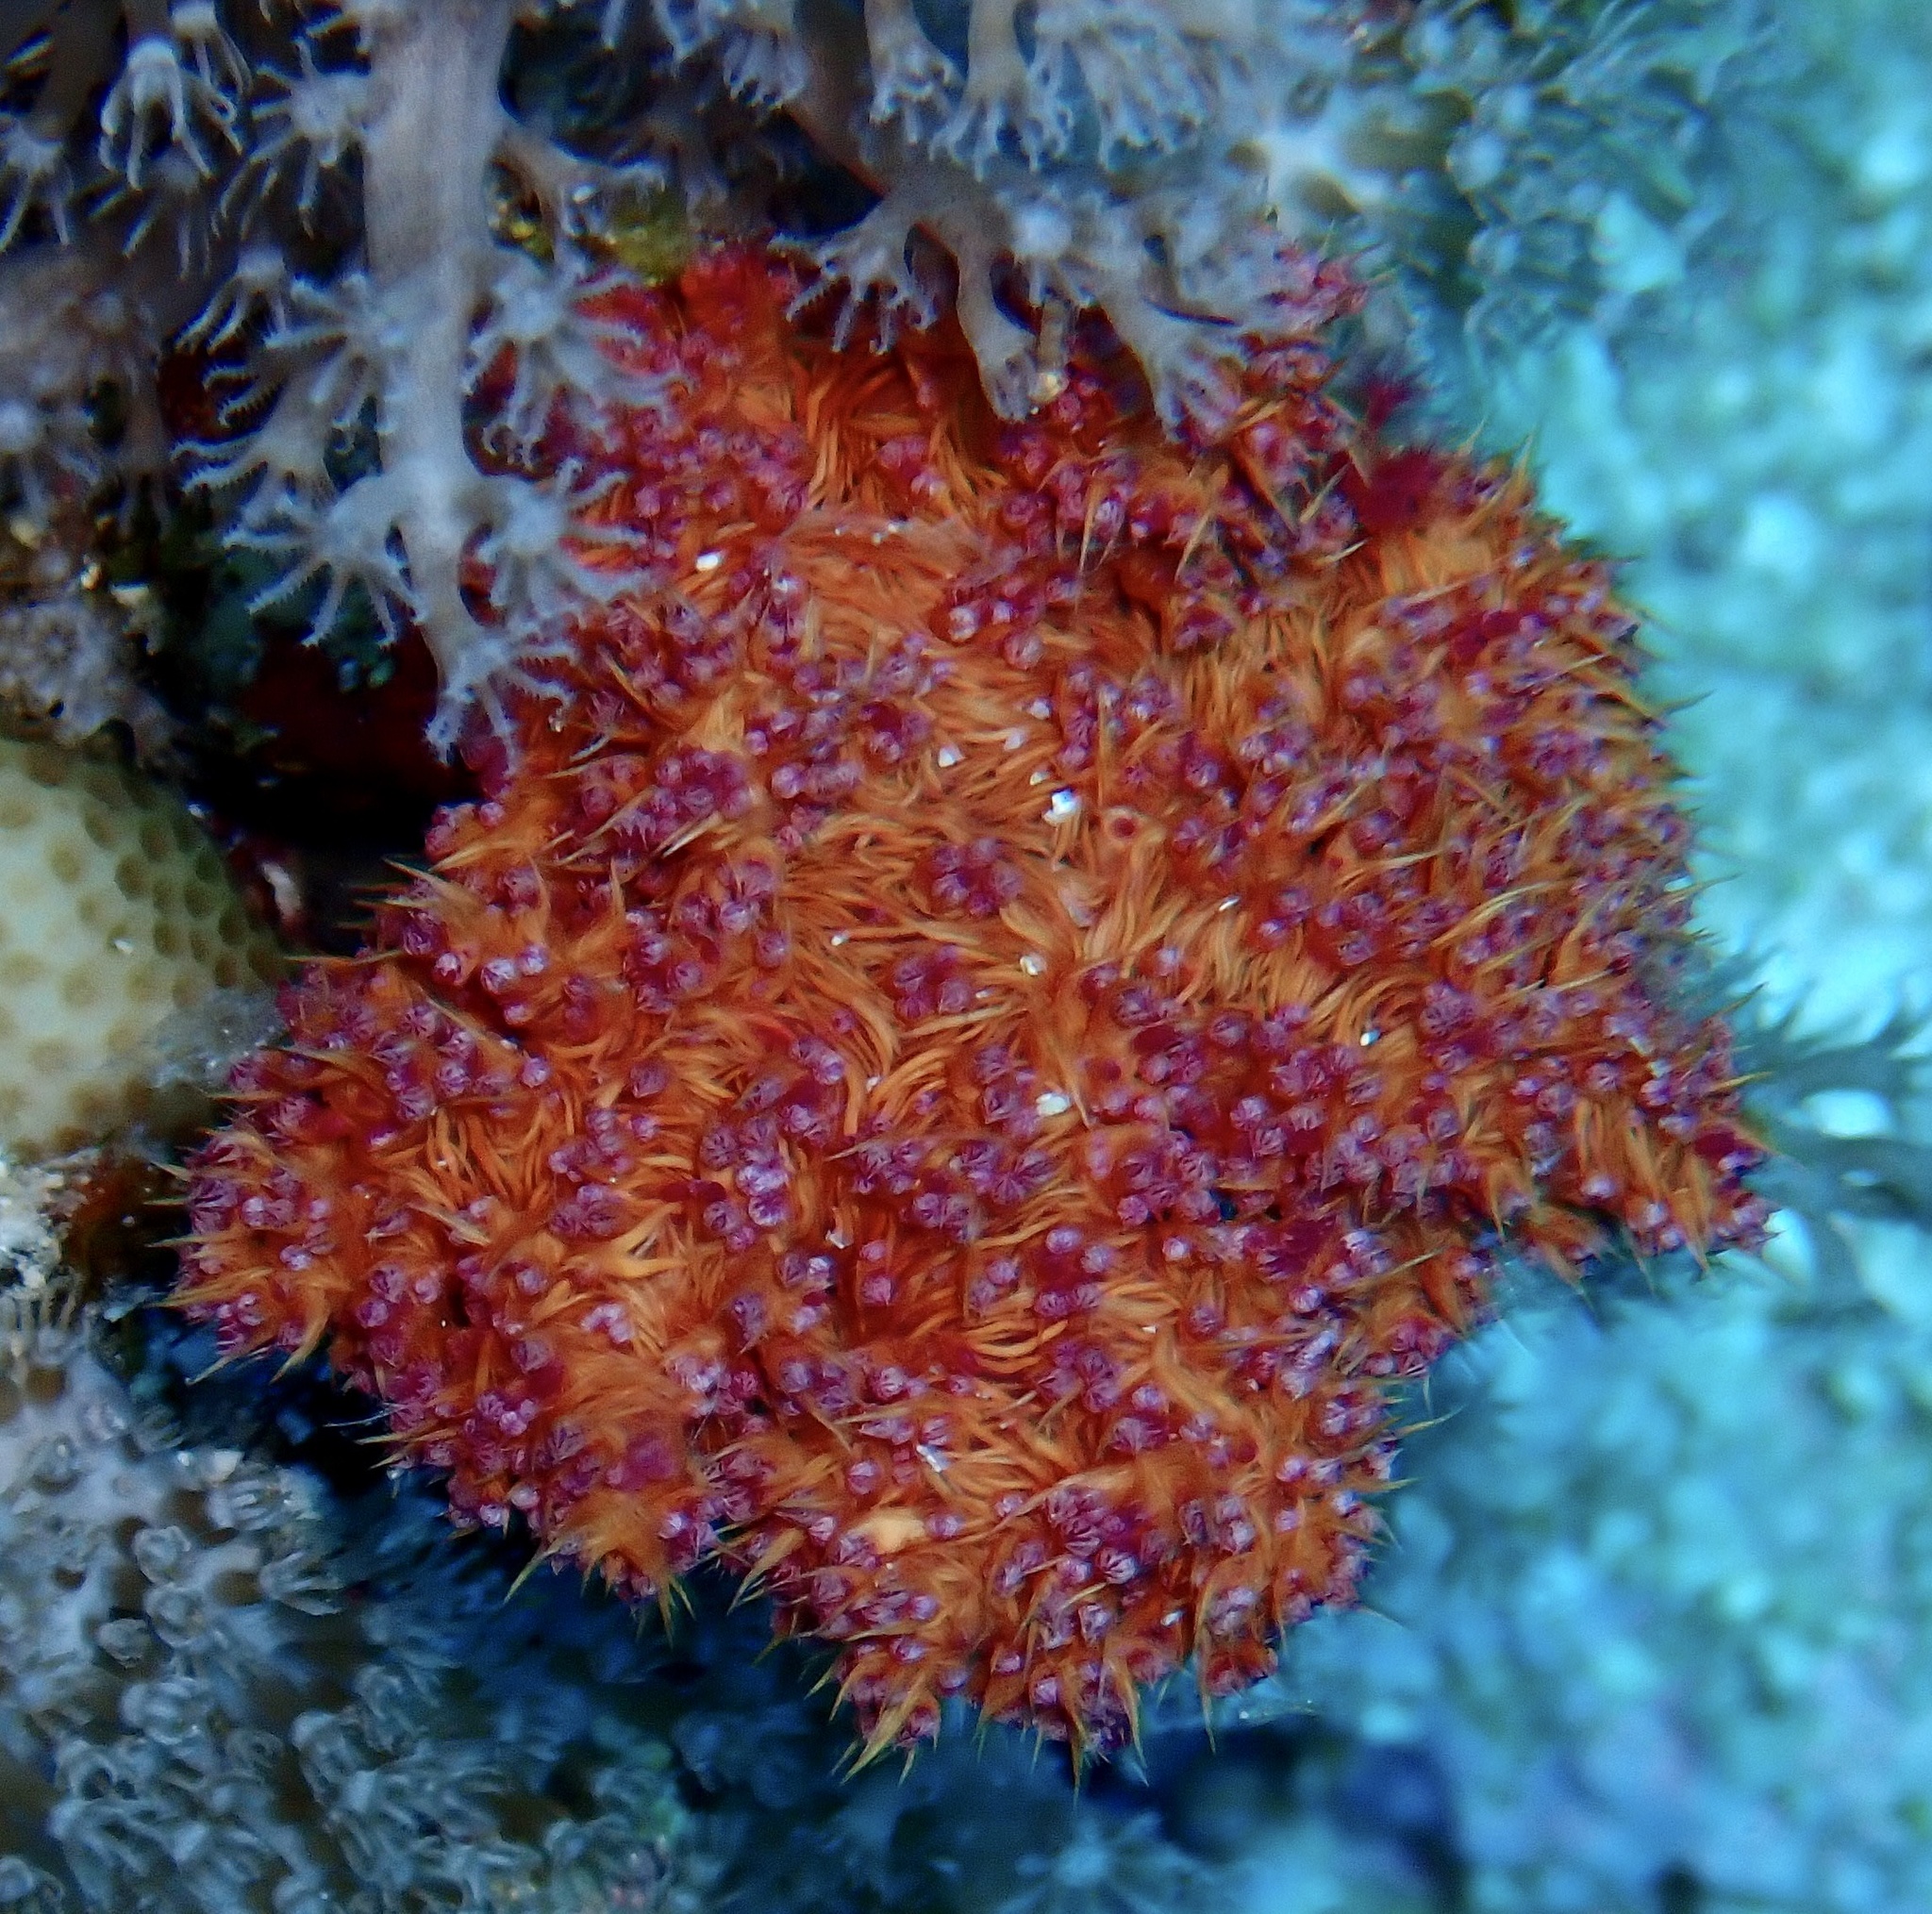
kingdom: Animalia
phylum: Cnidaria
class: Anthozoa
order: Malacalcyonacea
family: Nephtheidae
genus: Dendronephthya
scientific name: Dendronephthya hemprichi
